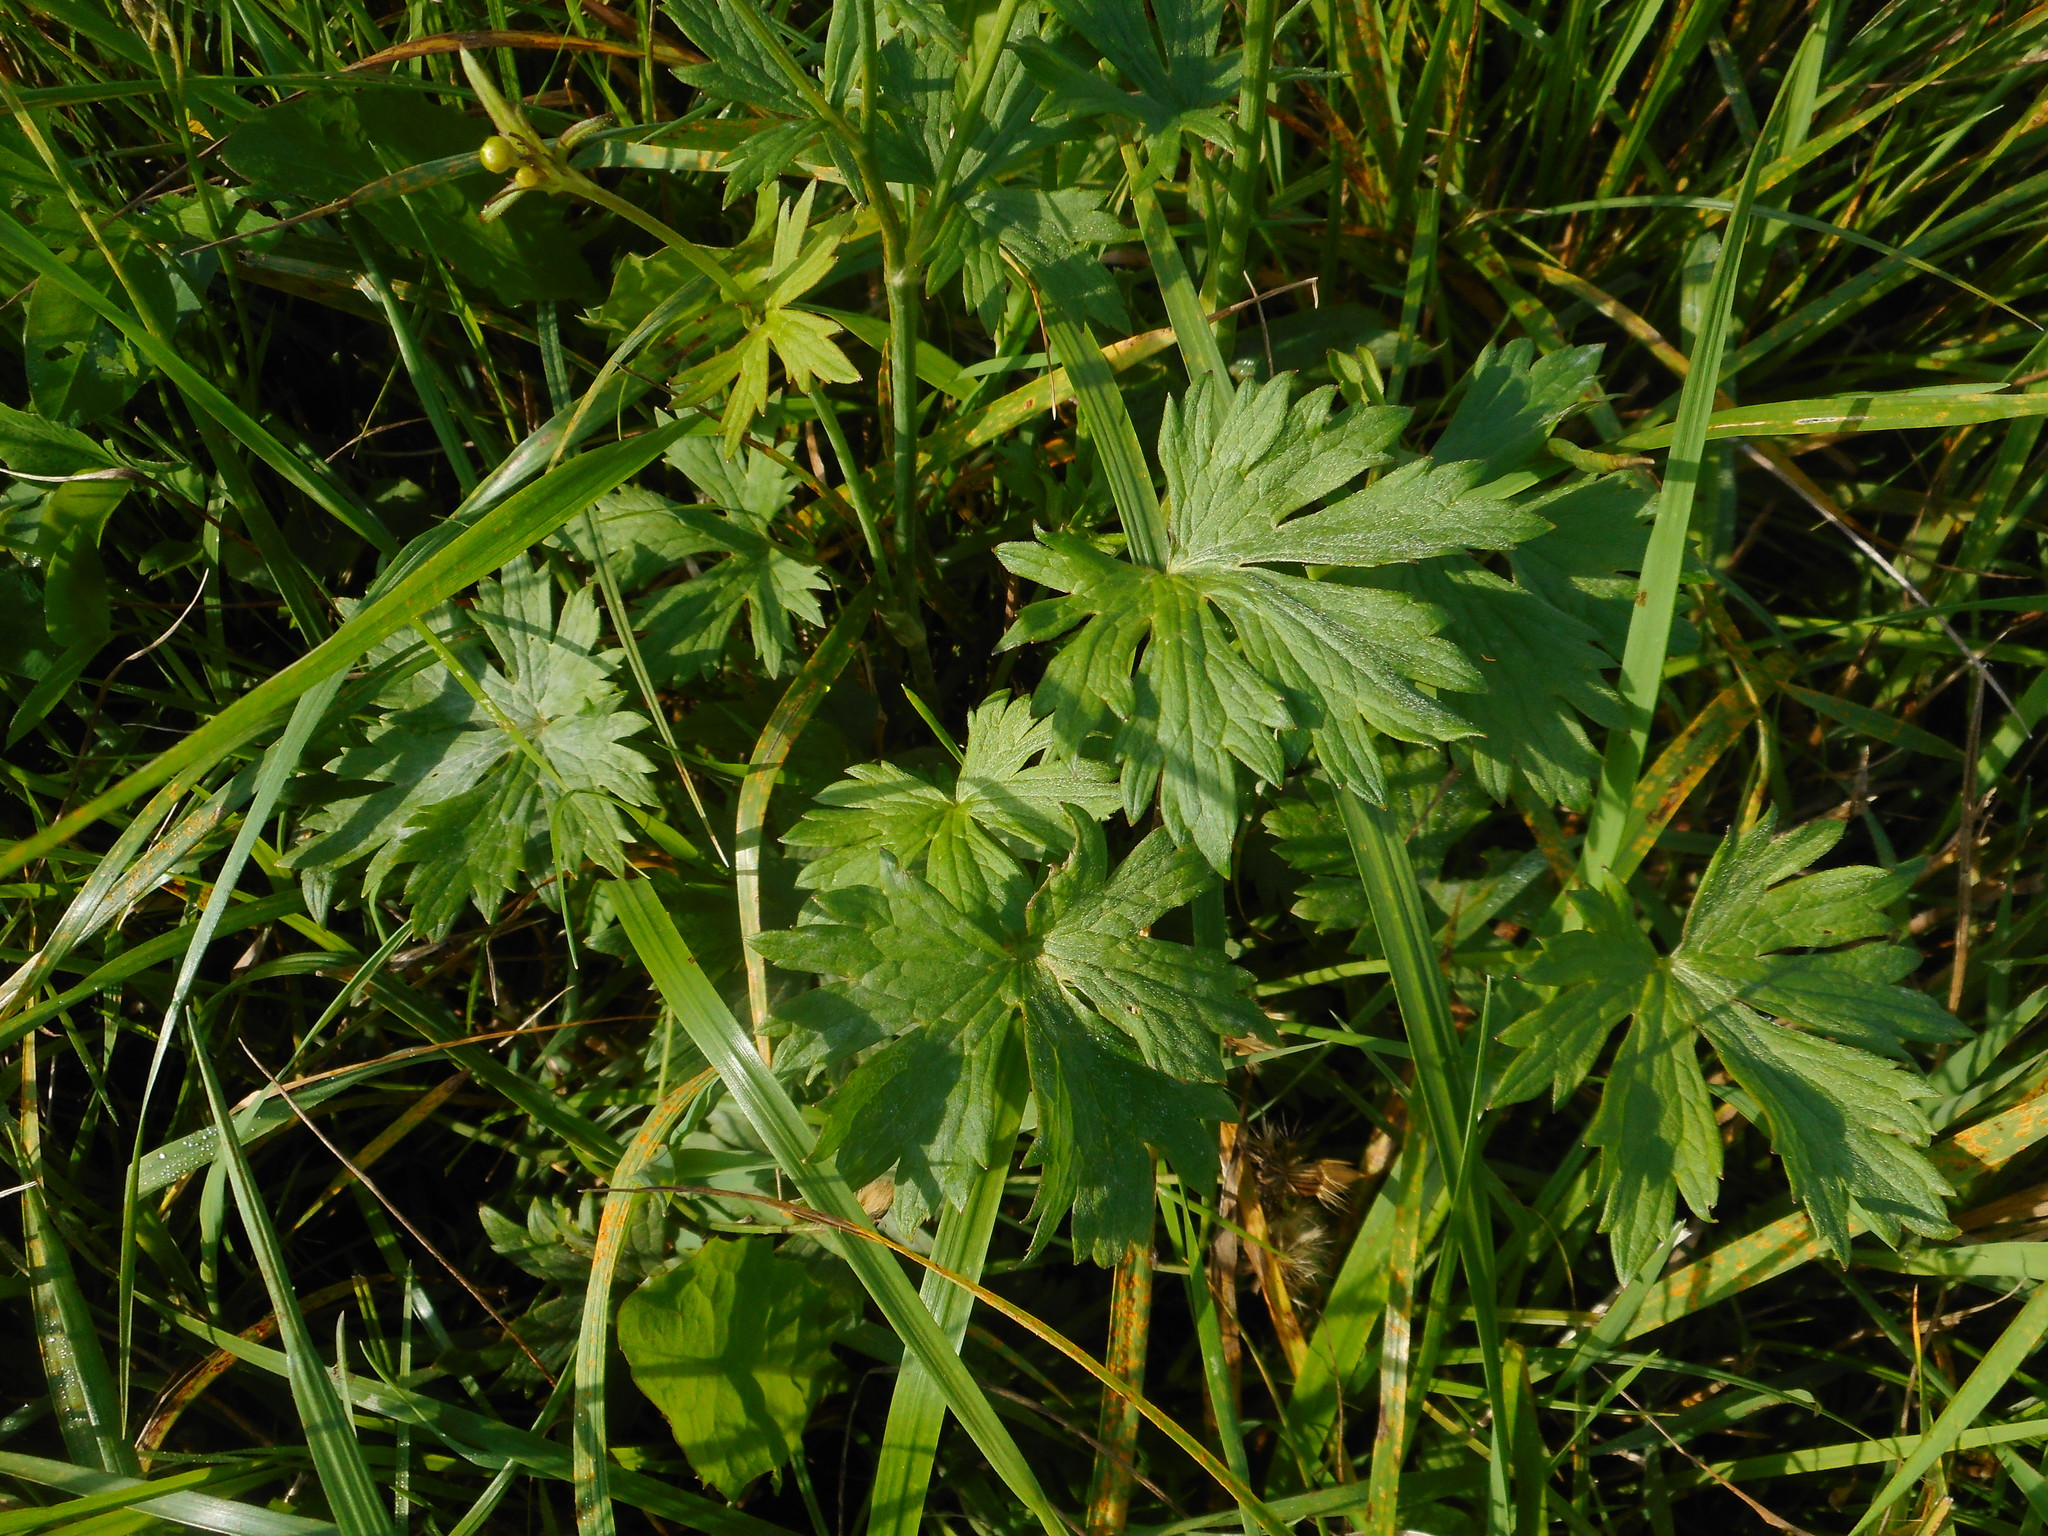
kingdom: Plantae
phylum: Tracheophyta
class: Magnoliopsida
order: Ranunculales
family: Ranunculaceae
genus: Ranunculus
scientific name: Ranunculus acris
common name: Meadow buttercup
